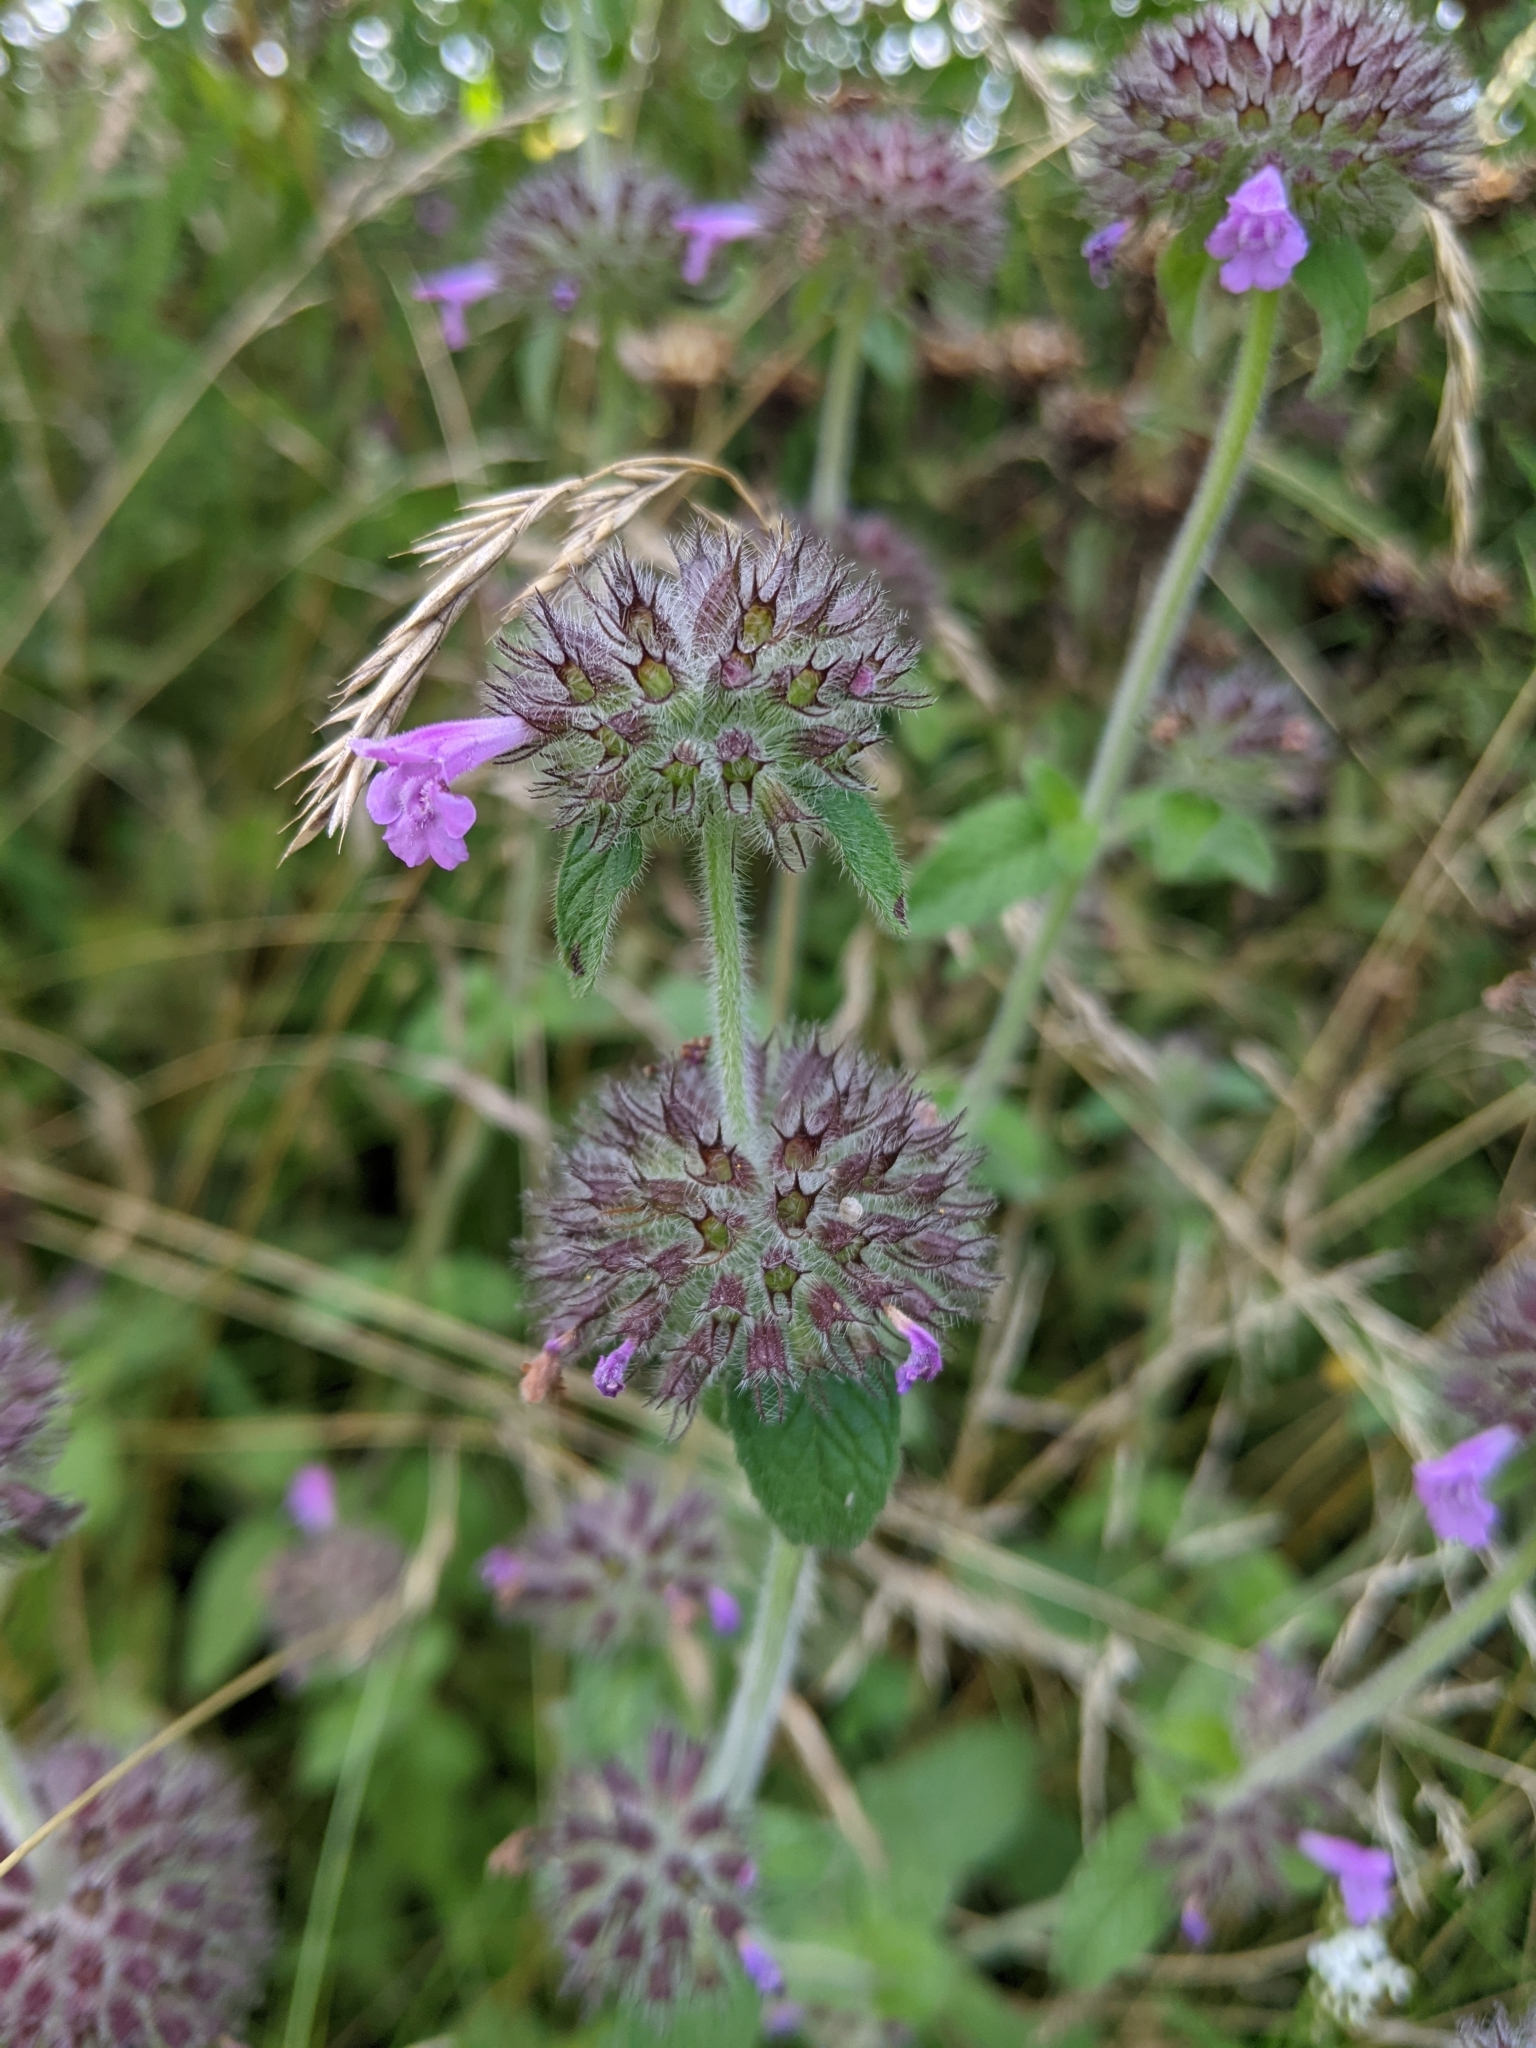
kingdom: Plantae
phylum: Tracheophyta
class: Magnoliopsida
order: Lamiales
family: Lamiaceae
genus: Clinopodium
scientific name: Clinopodium vulgare
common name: Wild basil
